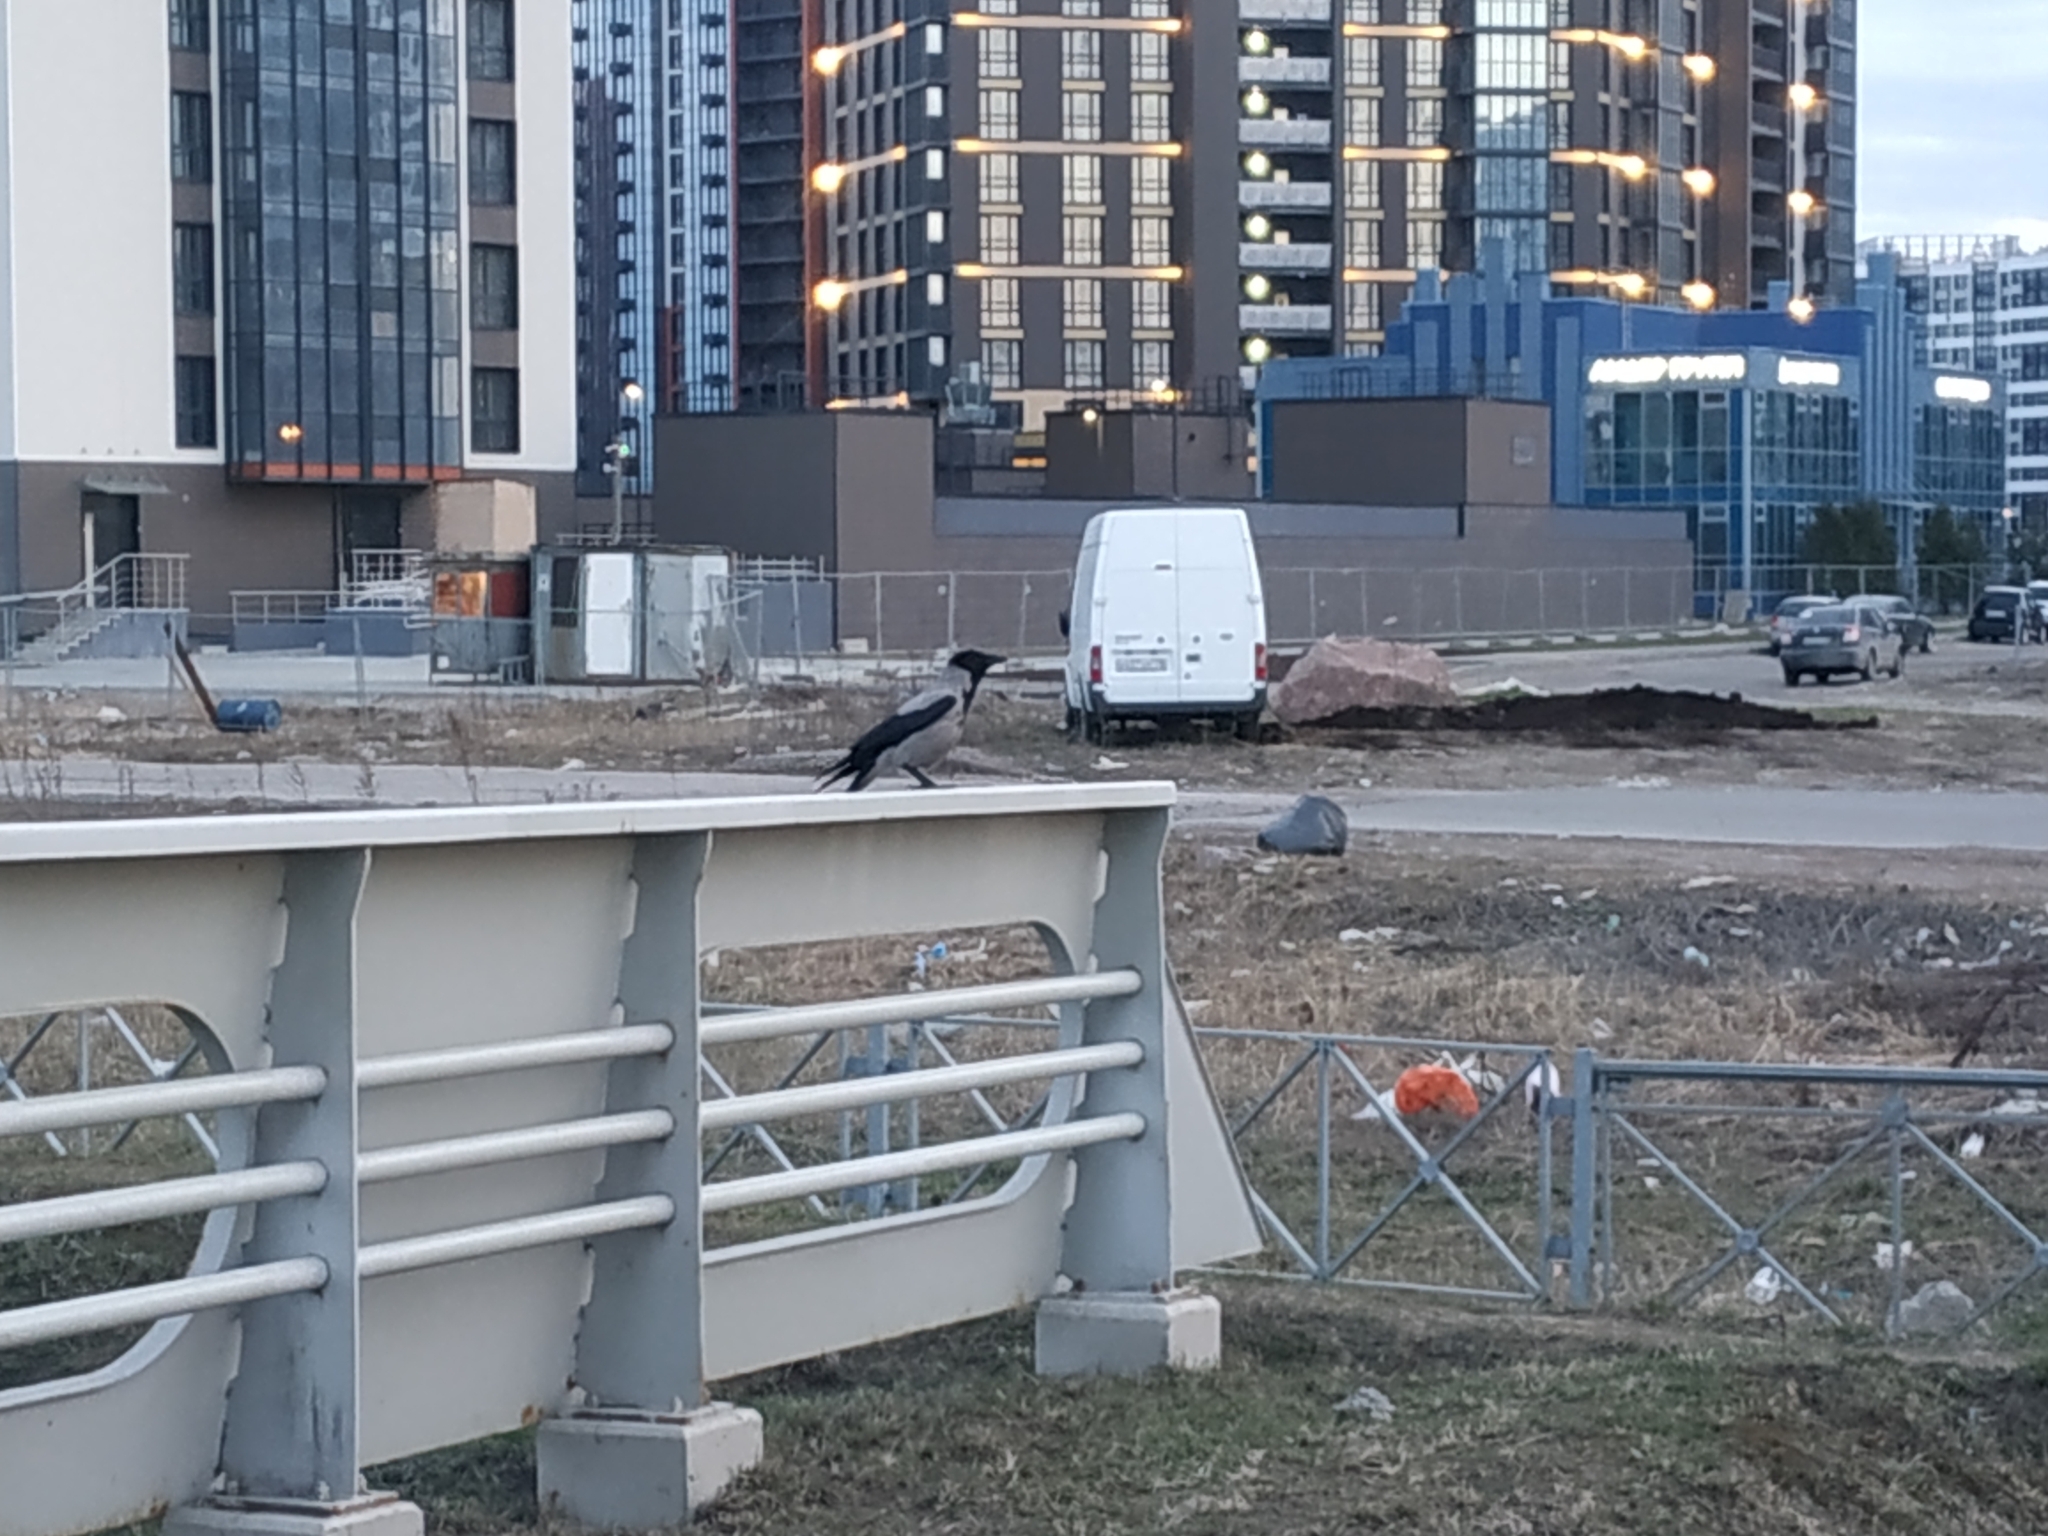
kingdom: Animalia
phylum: Chordata
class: Aves
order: Passeriformes
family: Corvidae
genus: Corvus
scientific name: Corvus cornix
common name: Hooded crow
